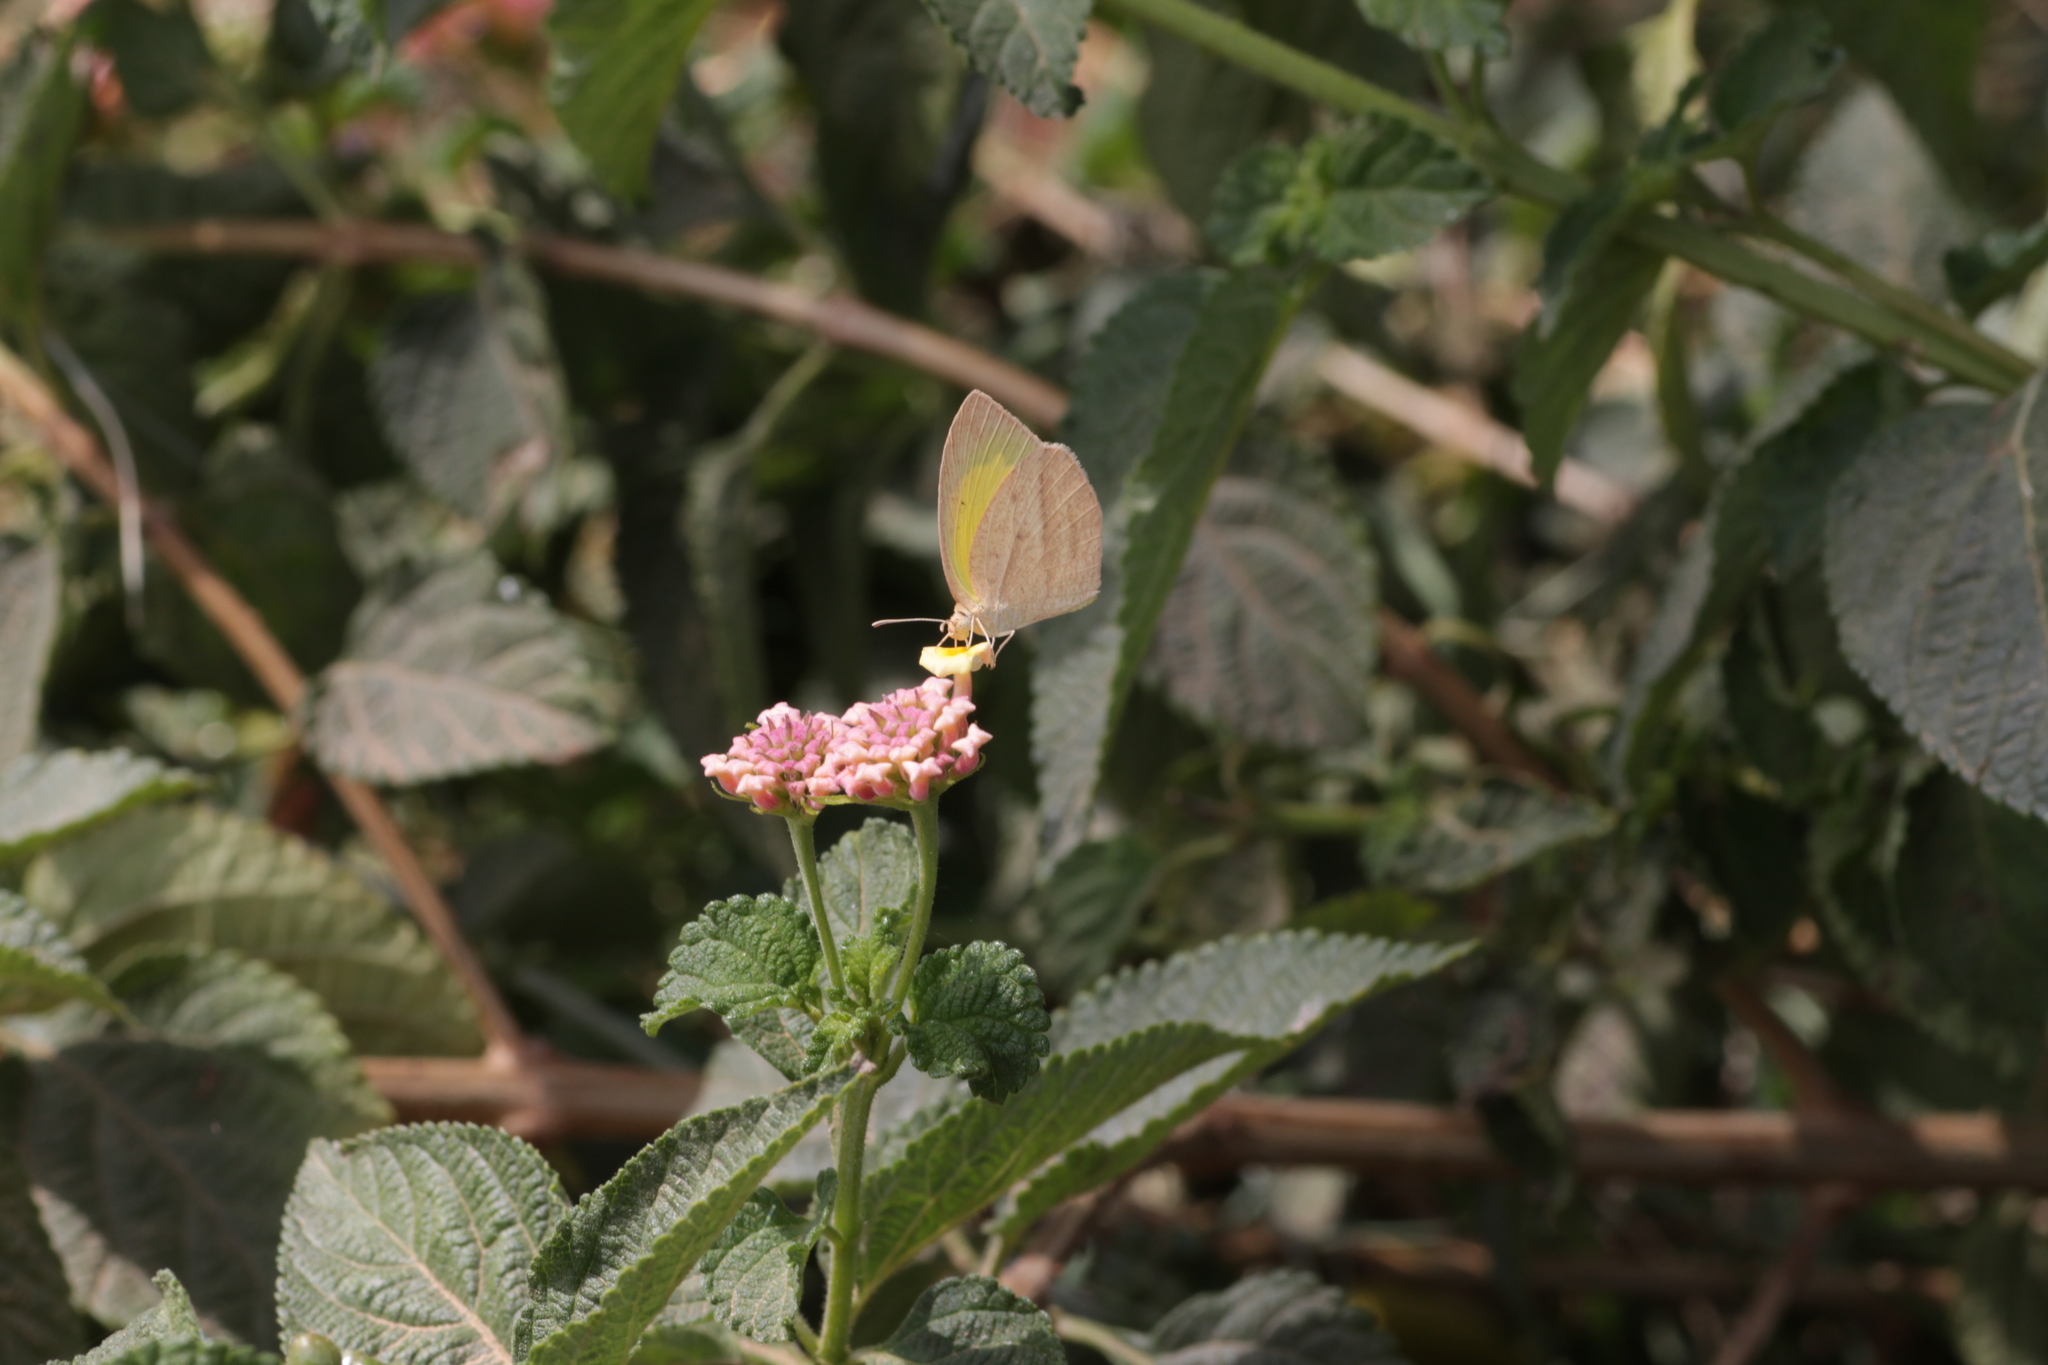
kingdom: Animalia
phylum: Arthropoda
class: Insecta
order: Lepidoptera
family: Pieridae
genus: Eurema
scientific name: Eurema laeta
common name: Spotless grass yellow
